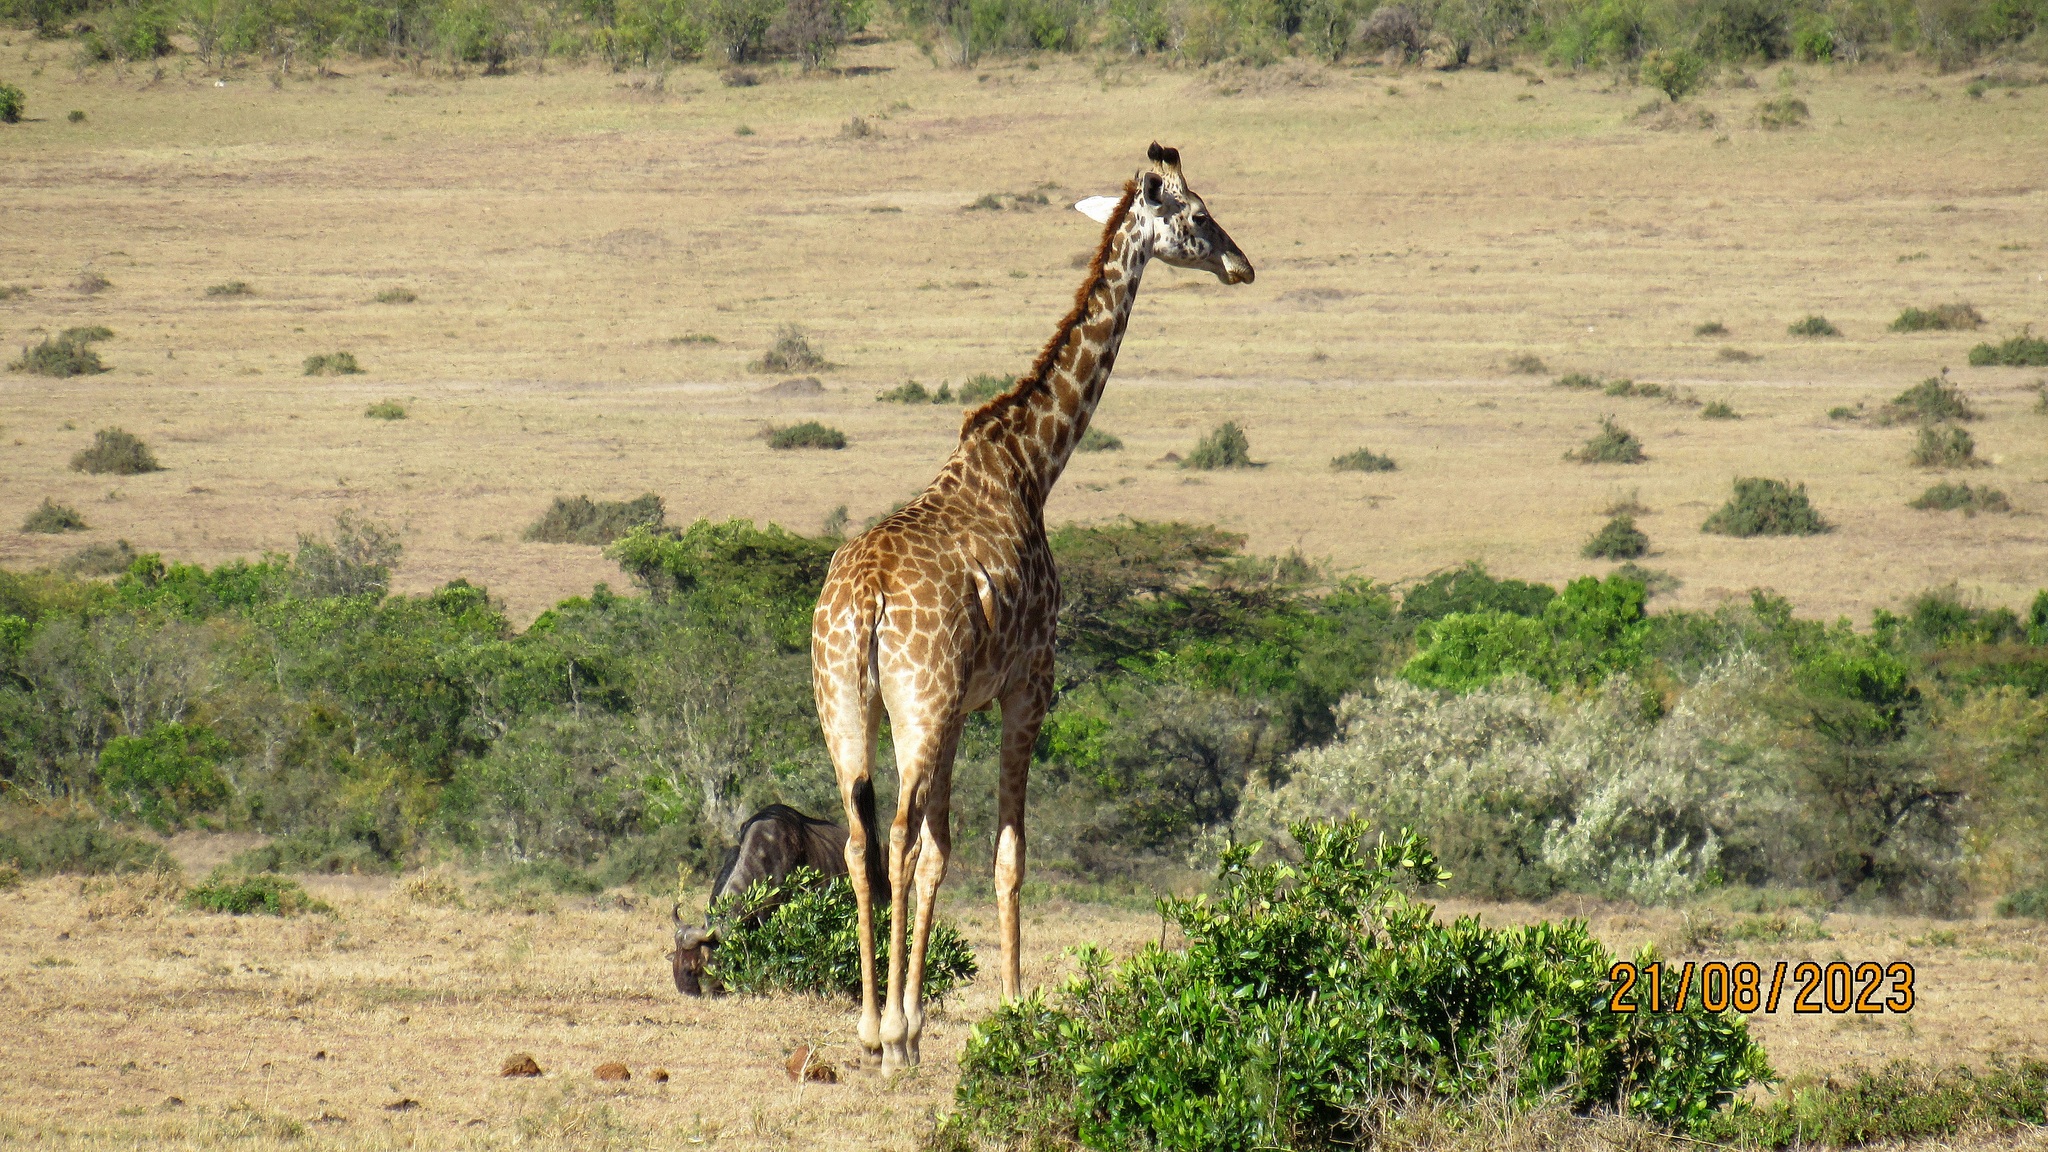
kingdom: Animalia
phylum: Chordata
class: Mammalia
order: Artiodactyla
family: Giraffidae
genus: Giraffa
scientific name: Giraffa tippelskirchi
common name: Masai giraffe
